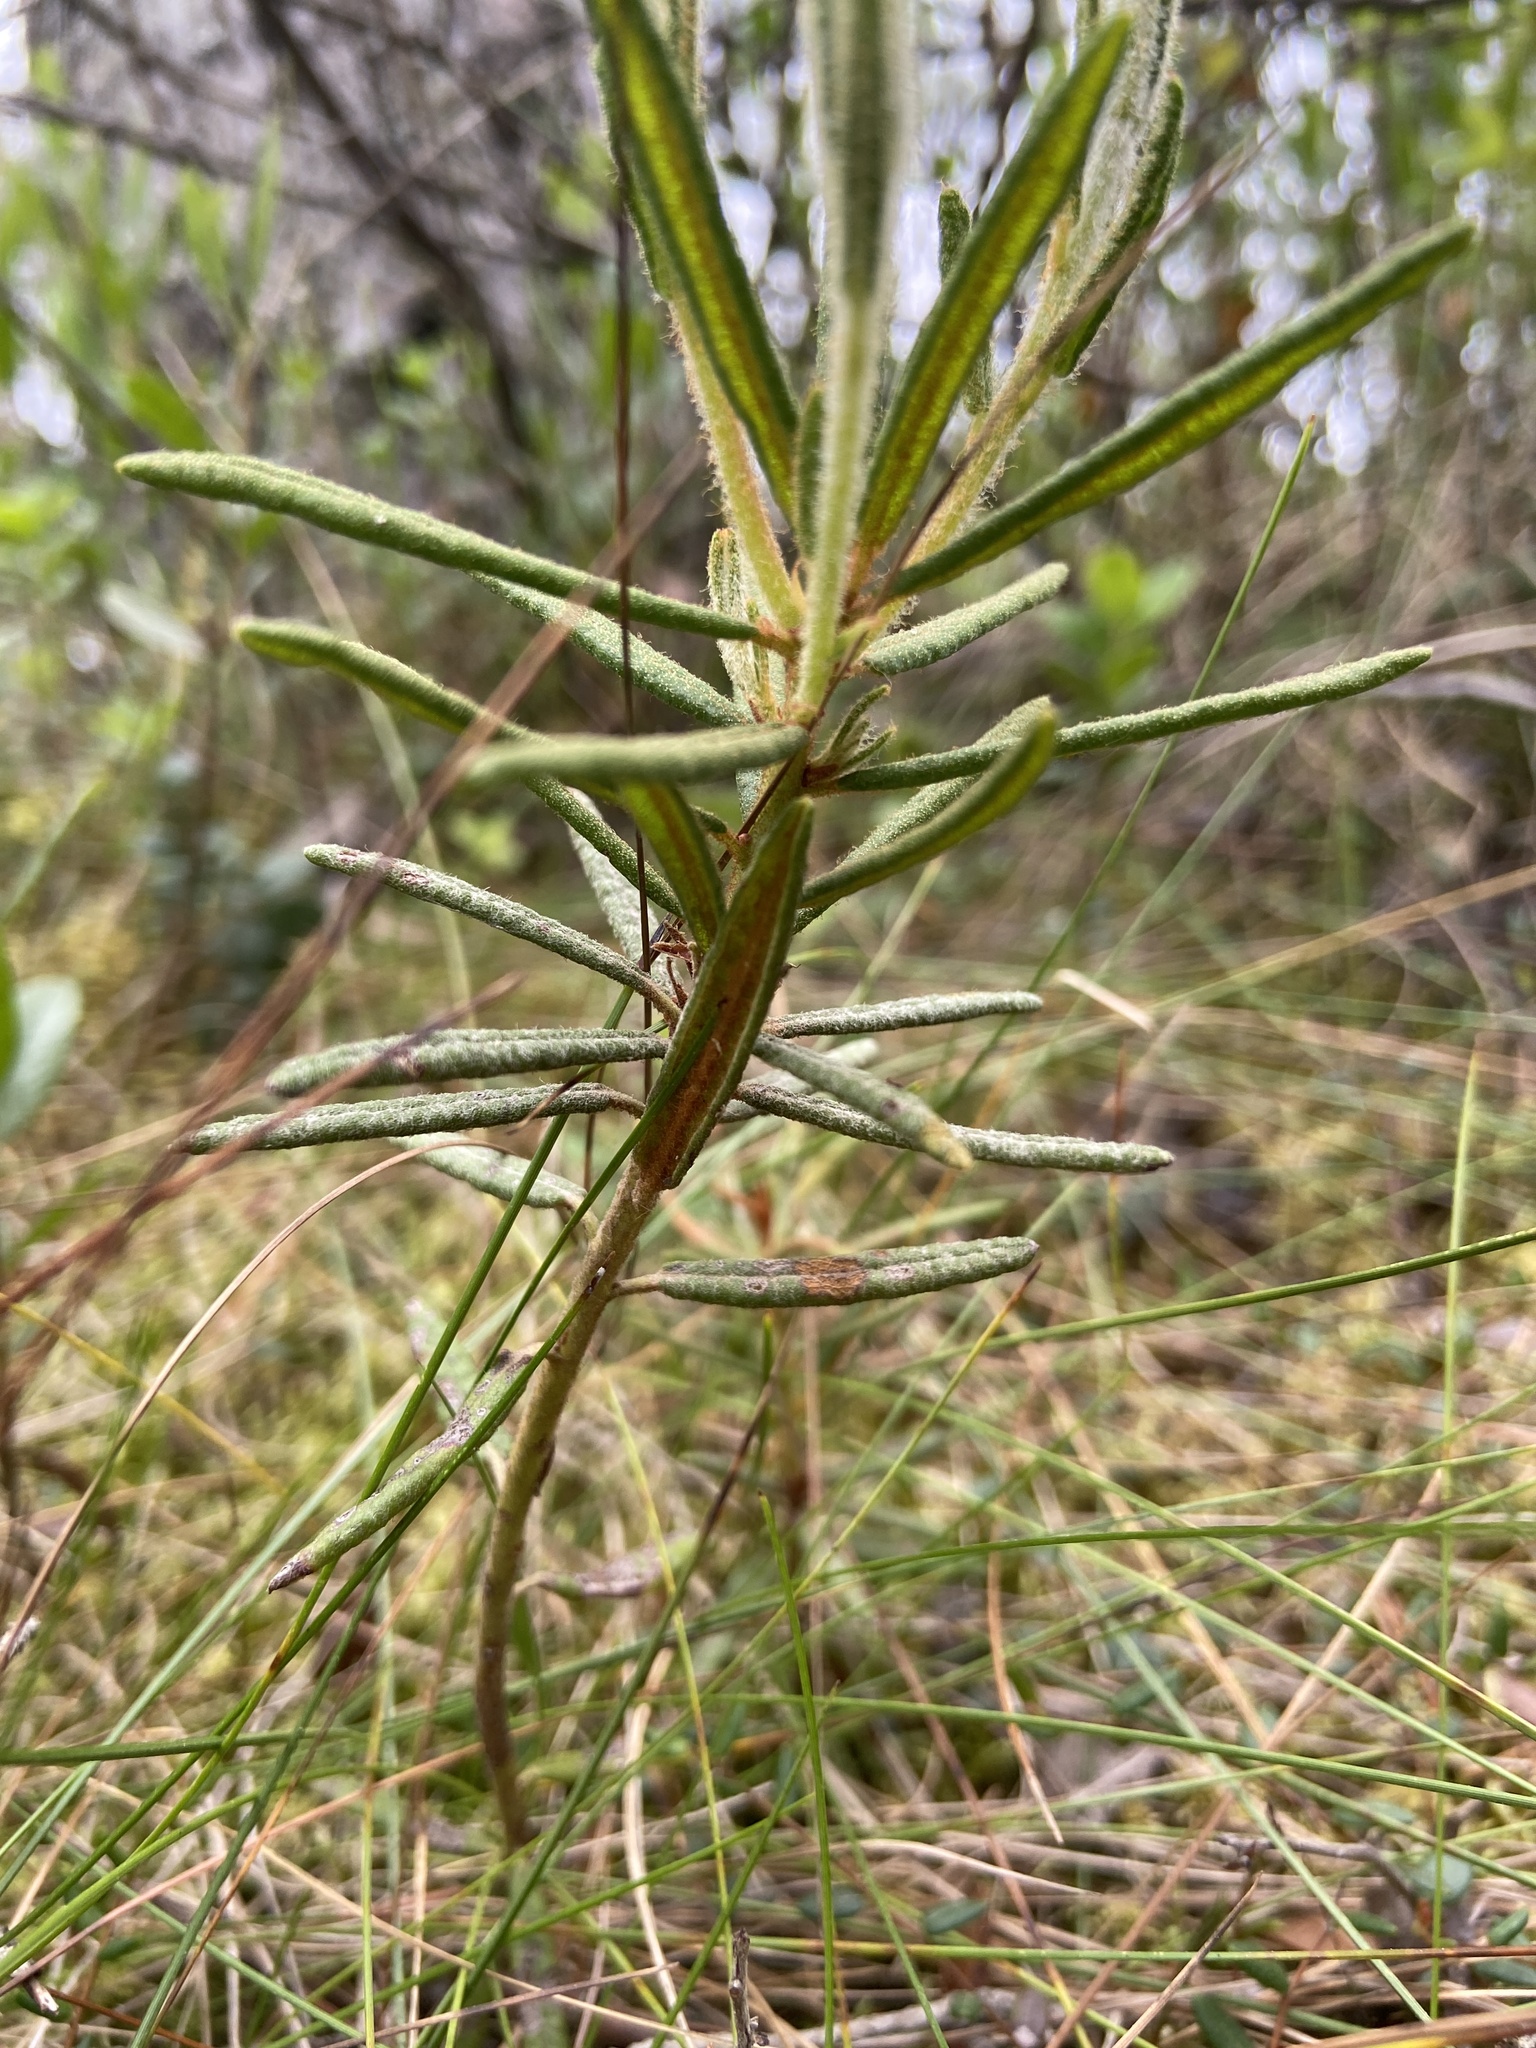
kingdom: Plantae
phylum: Tracheophyta
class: Magnoliopsida
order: Ericales
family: Ericaceae
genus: Rhododendron
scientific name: Rhododendron tomentosum
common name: Marsh labrador tea
